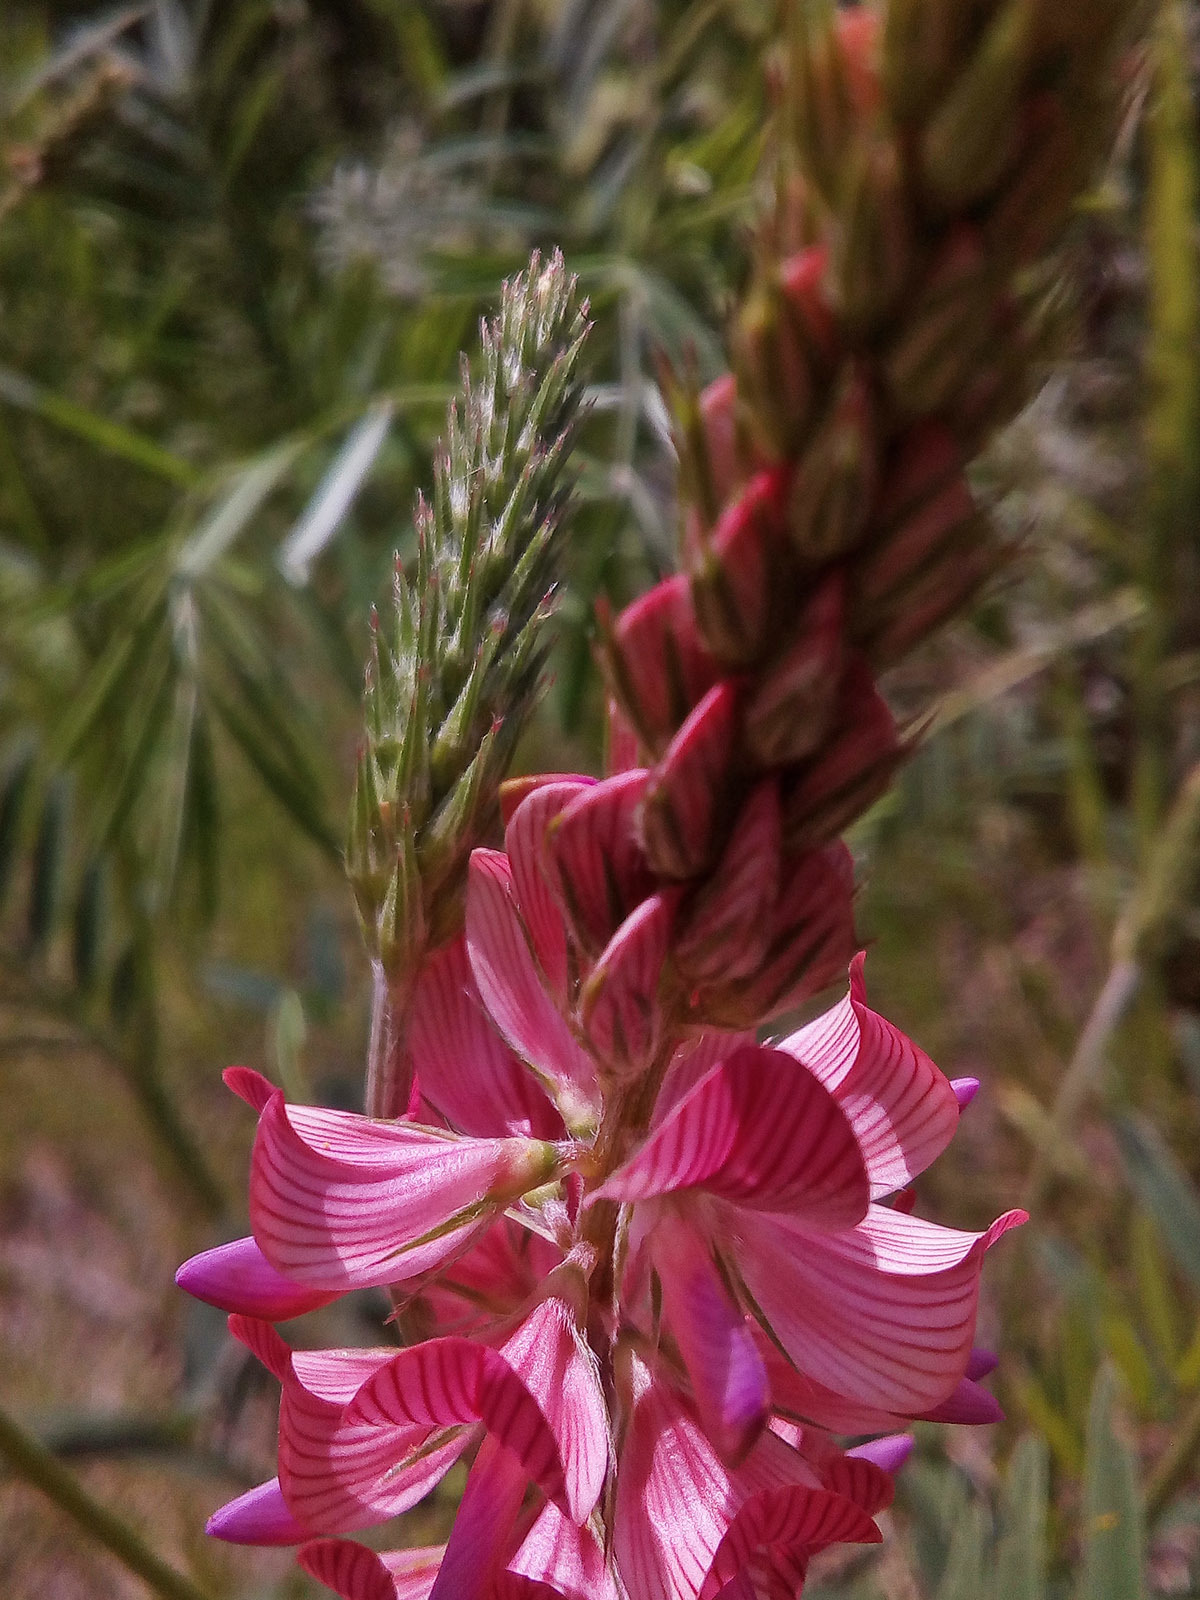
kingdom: Plantae
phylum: Tracheophyta
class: Magnoliopsida
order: Fabales
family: Fabaceae
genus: Onobrychis
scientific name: Onobrychis arenaria
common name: Sand esparcet
